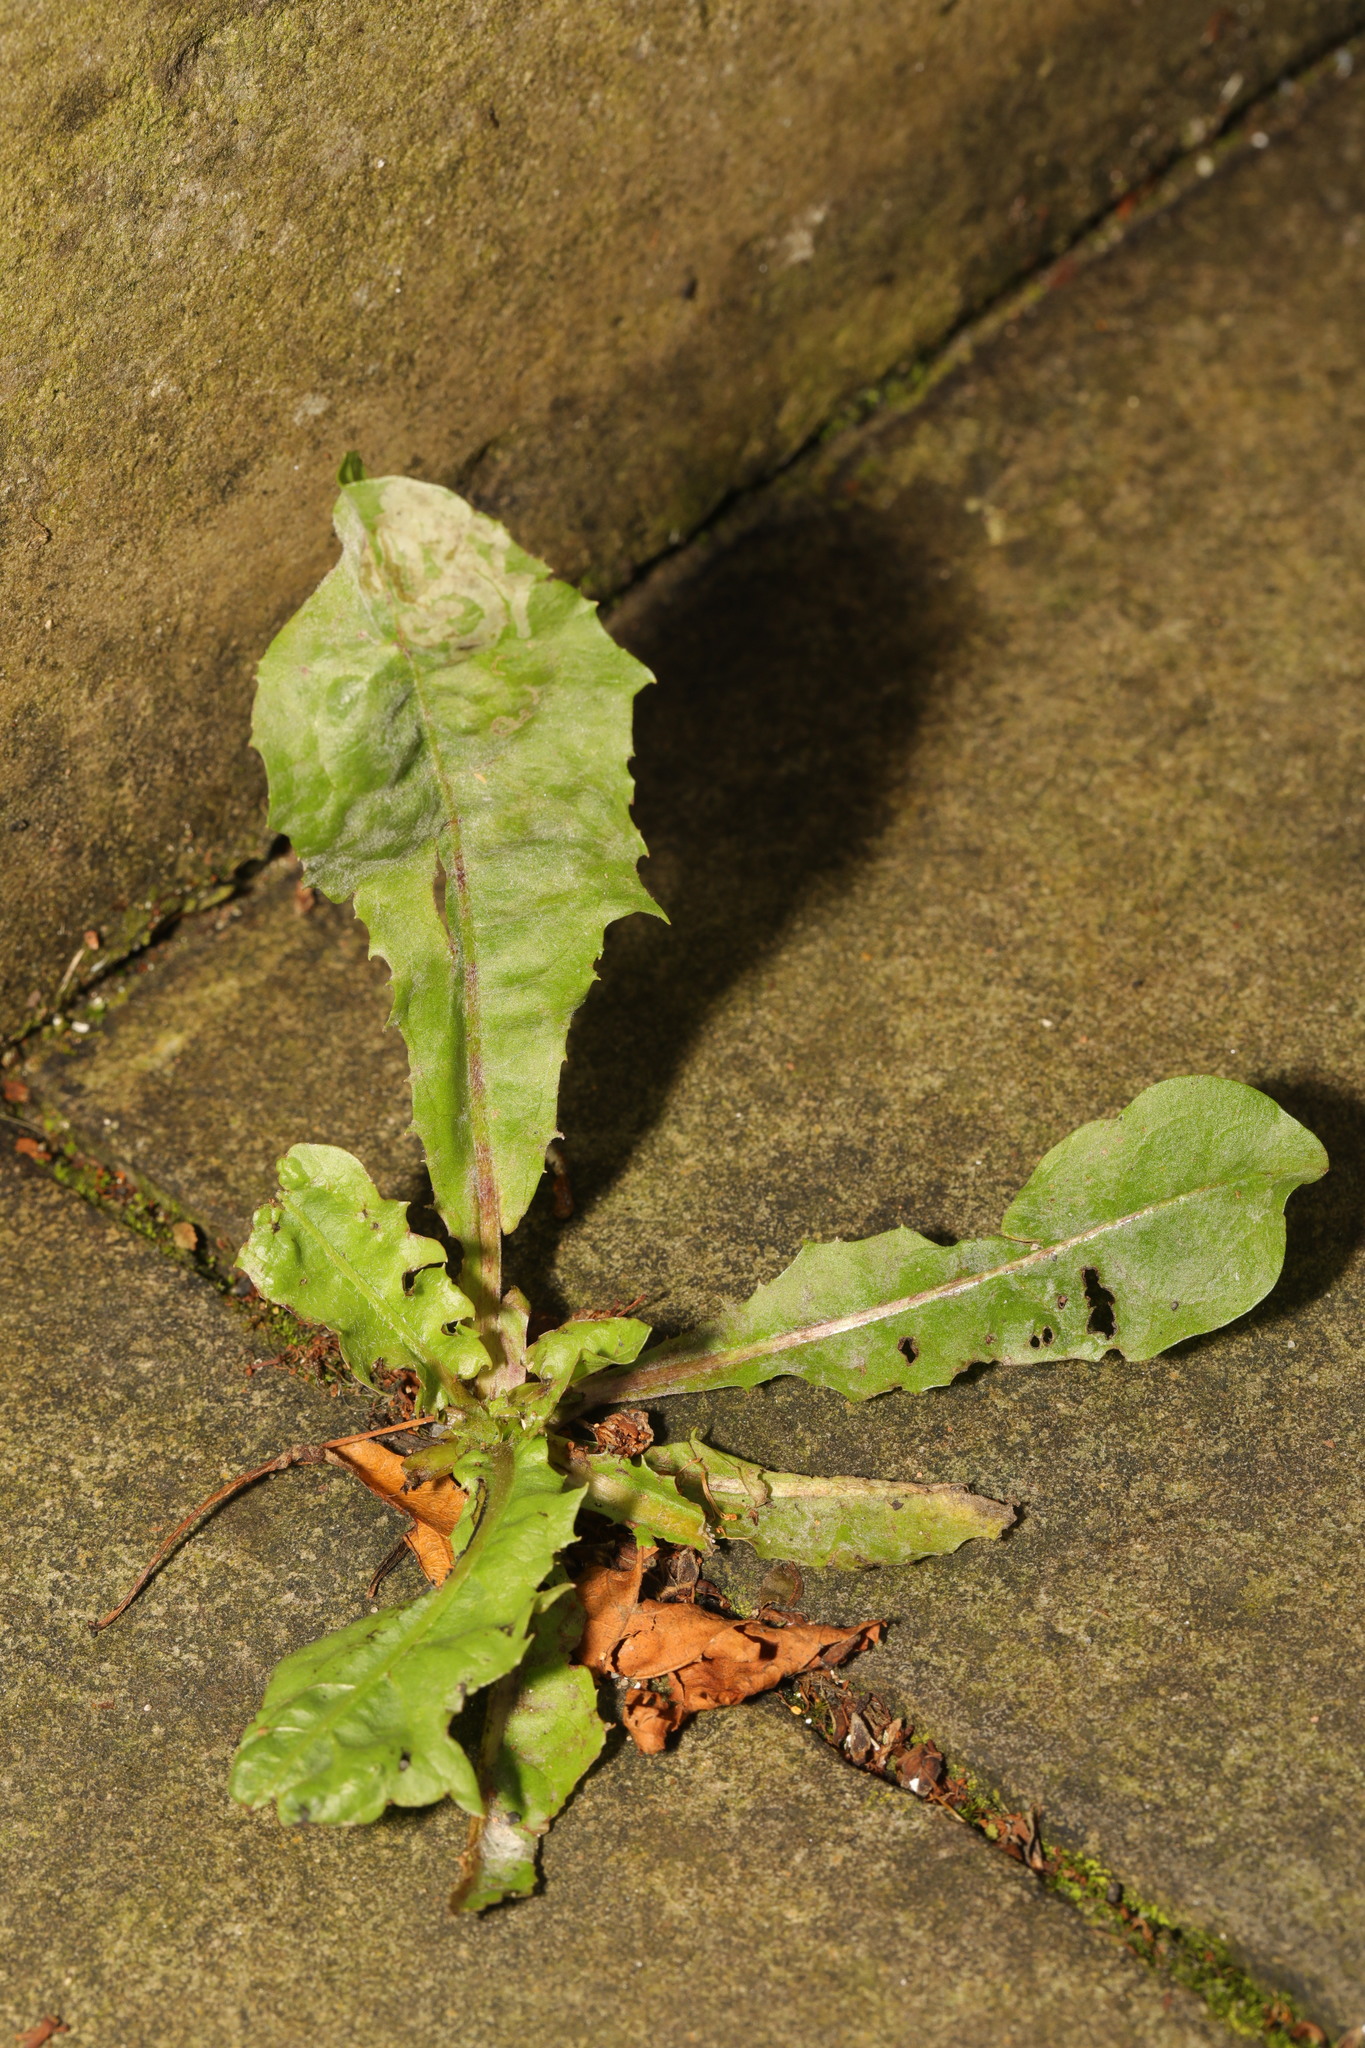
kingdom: Plantae
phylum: Tracheophyta
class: Magnoliopsida
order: Asterales
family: Asteraceae
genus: Taraxacum
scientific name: Taraxacum officinale
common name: Common dandelion
